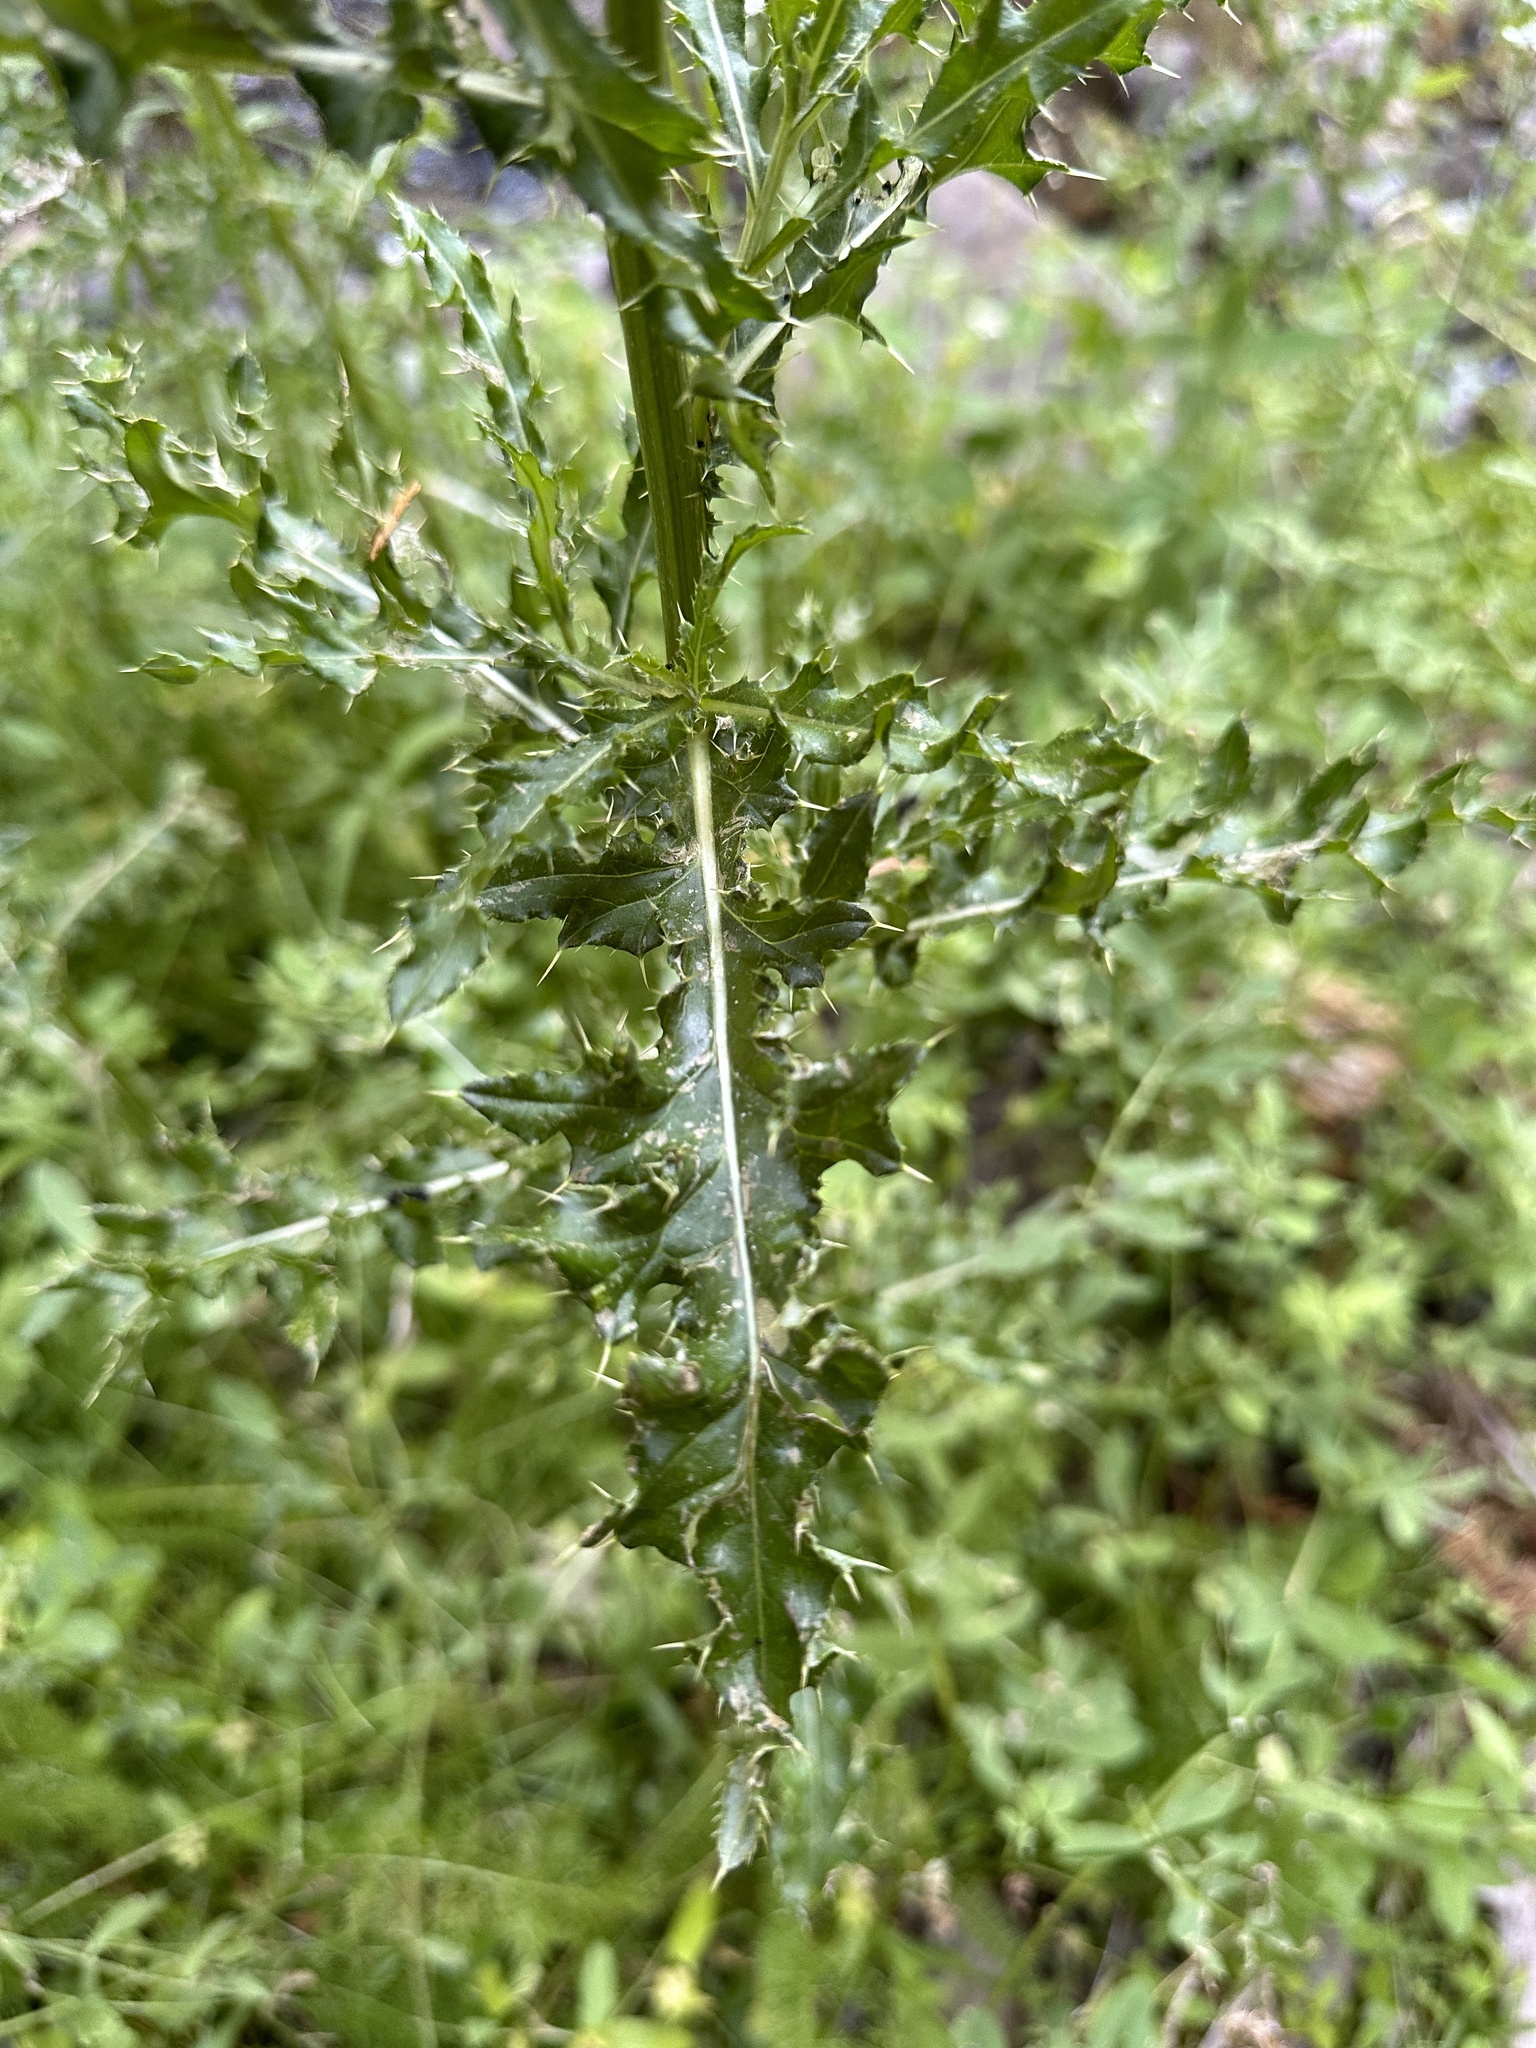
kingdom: Plantae
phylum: Tracheophyta
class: Magnoliopsida
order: Asterales
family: Asteraceae
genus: Cirsium
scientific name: Cirsium arvense
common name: Creeping thistle
